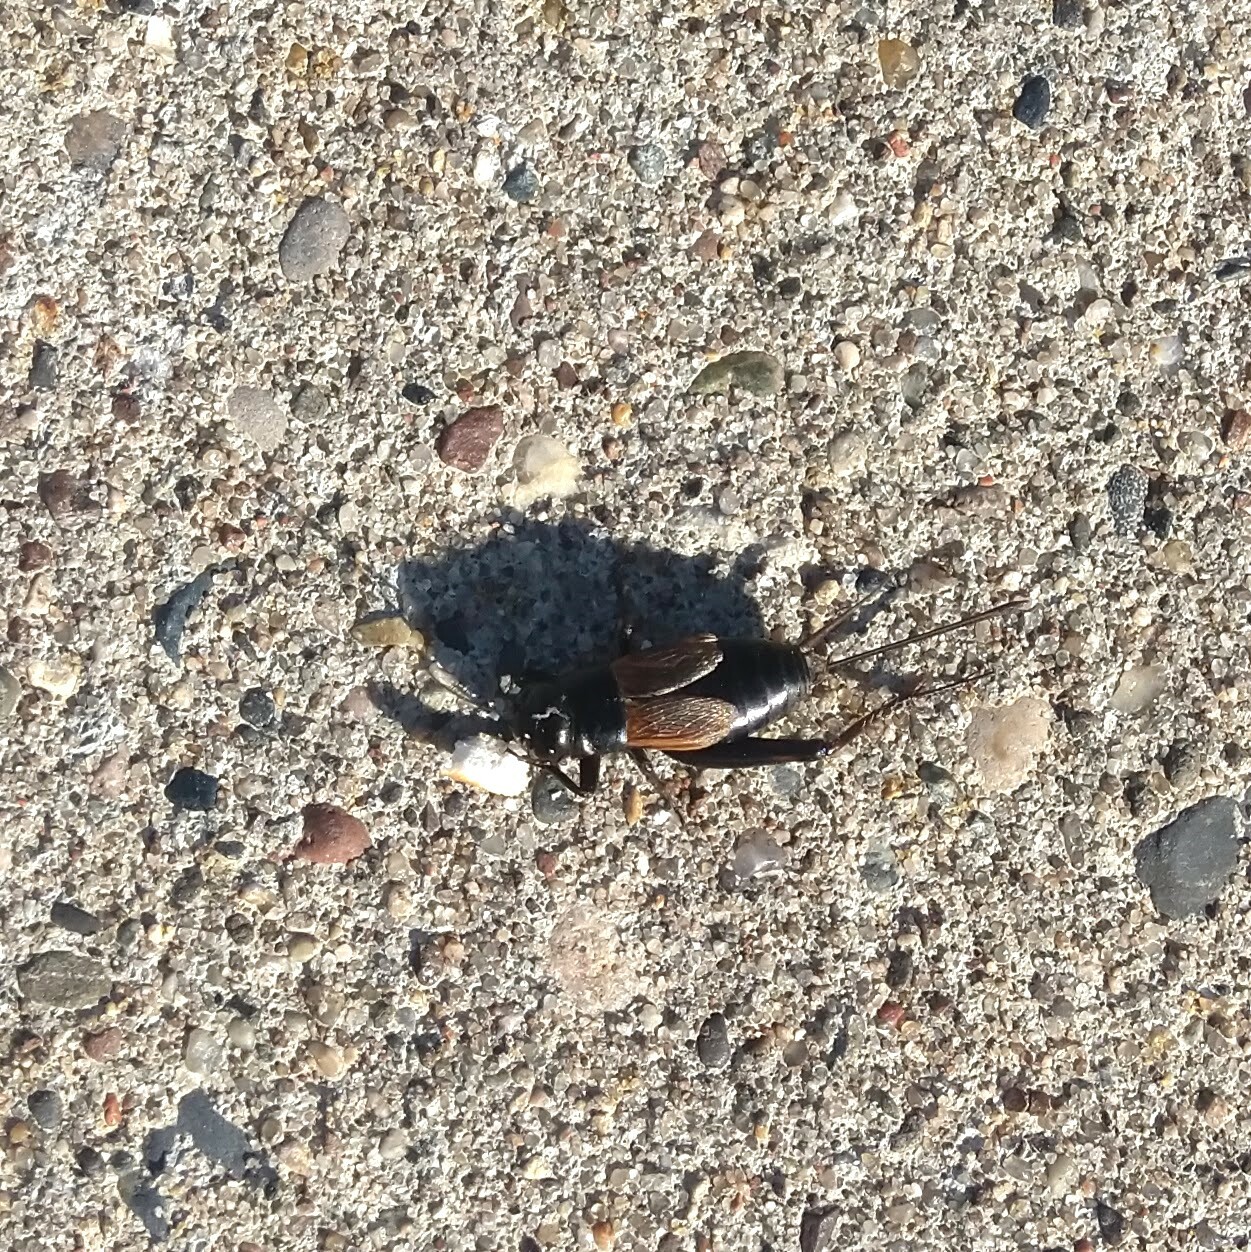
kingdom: Animalia
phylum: Arthropoda
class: Insecta
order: Orthoptera
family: Gryllidae
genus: Gryllus
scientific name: Gryllus pennsylvanicus
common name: Fall field cricket
